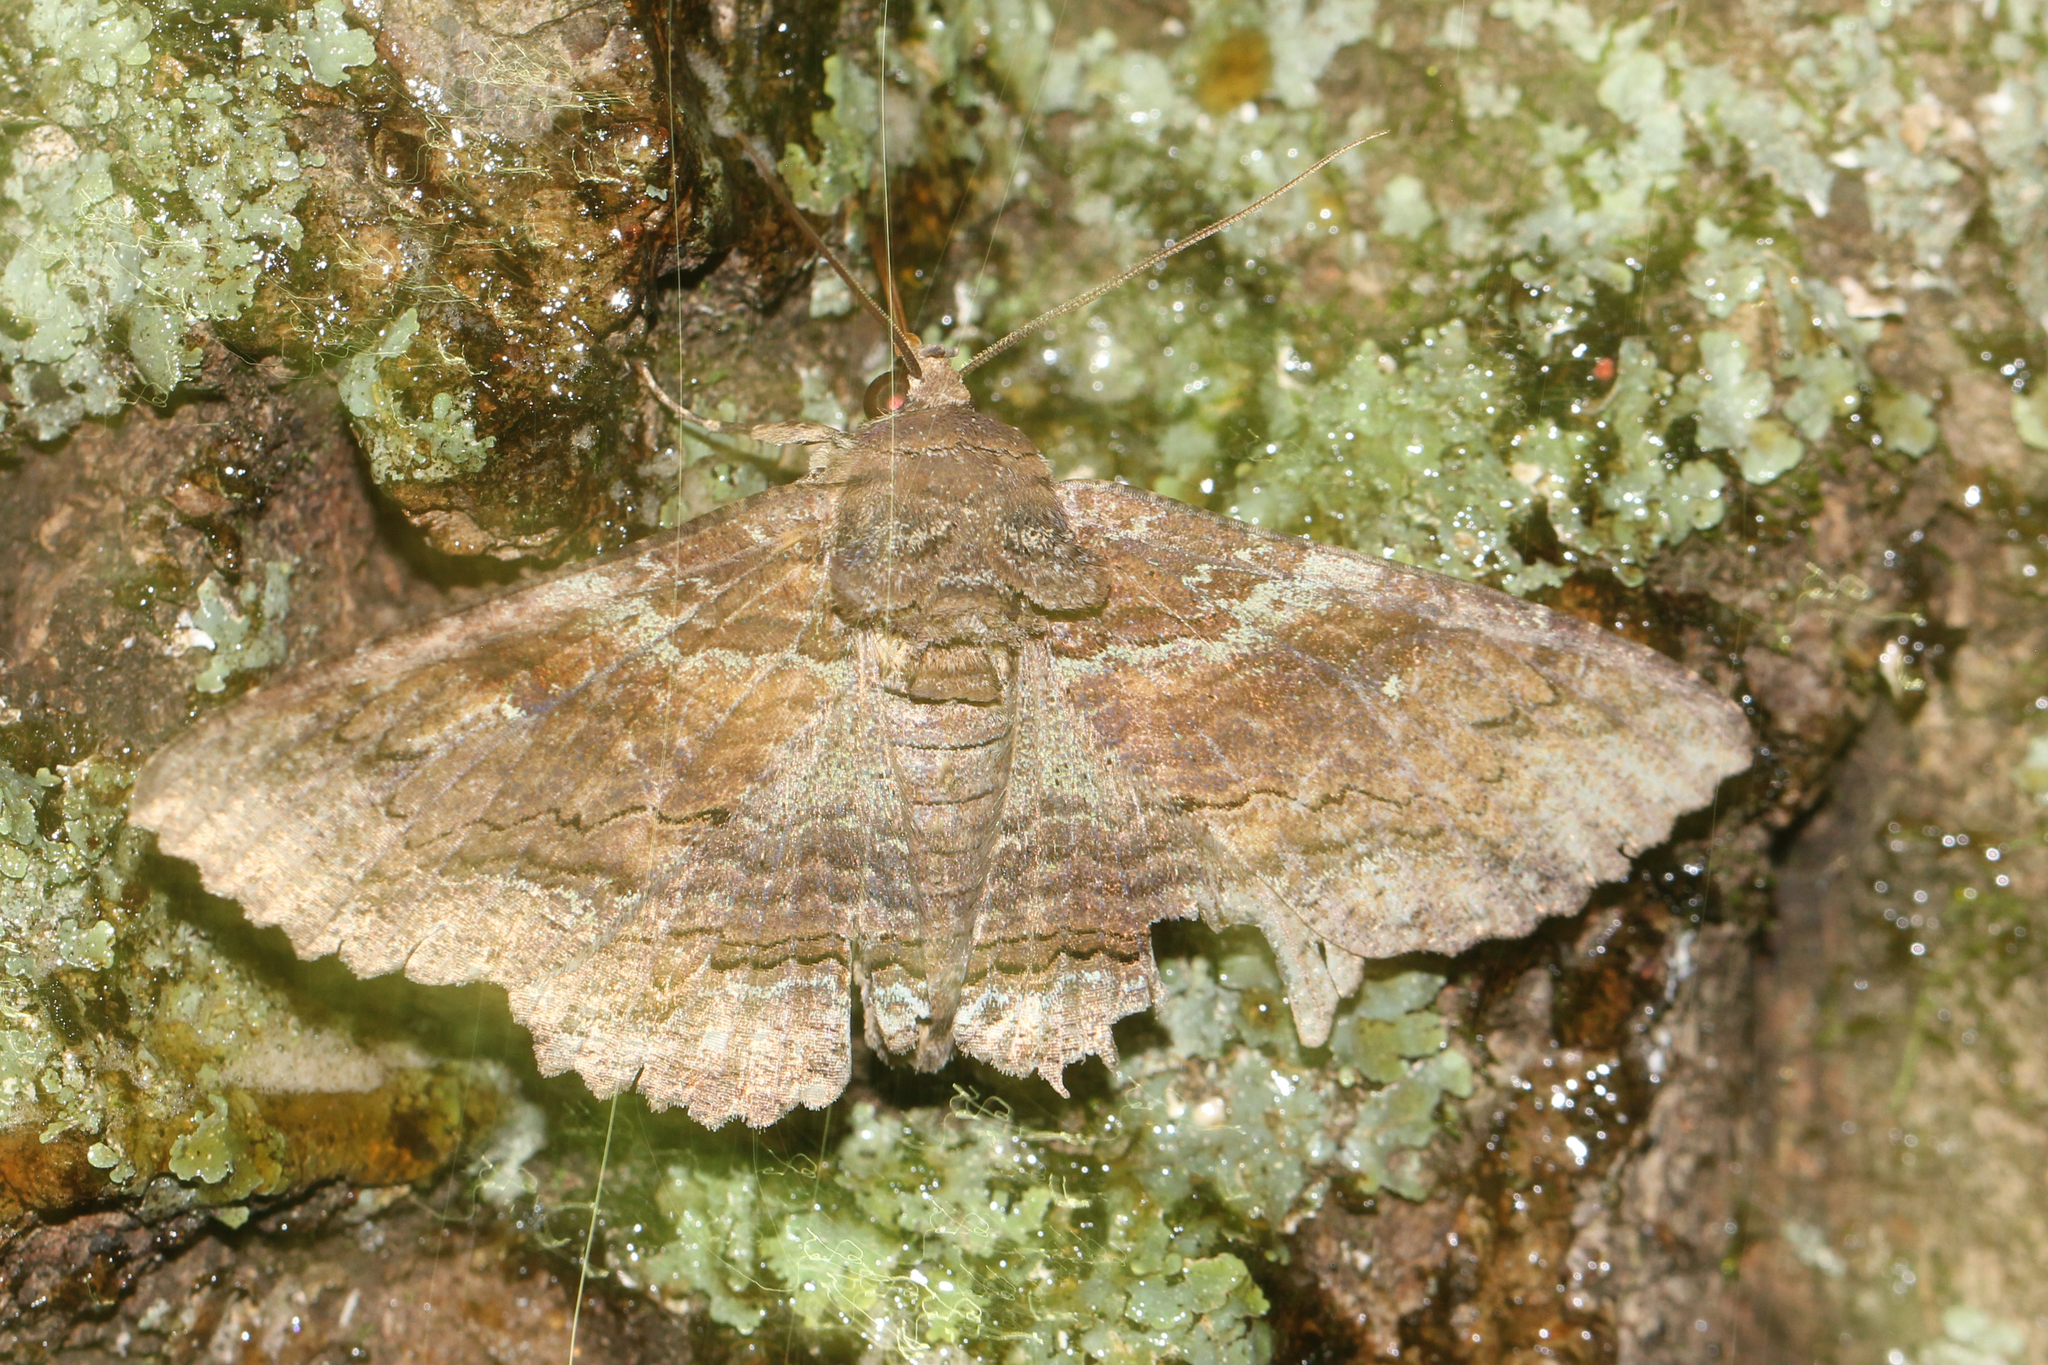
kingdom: Animalia
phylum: Arthropoda
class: Insecta
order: Lepidoptera
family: Erebidae
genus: Zale
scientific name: Zale lunata
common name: Lunate zale moth
